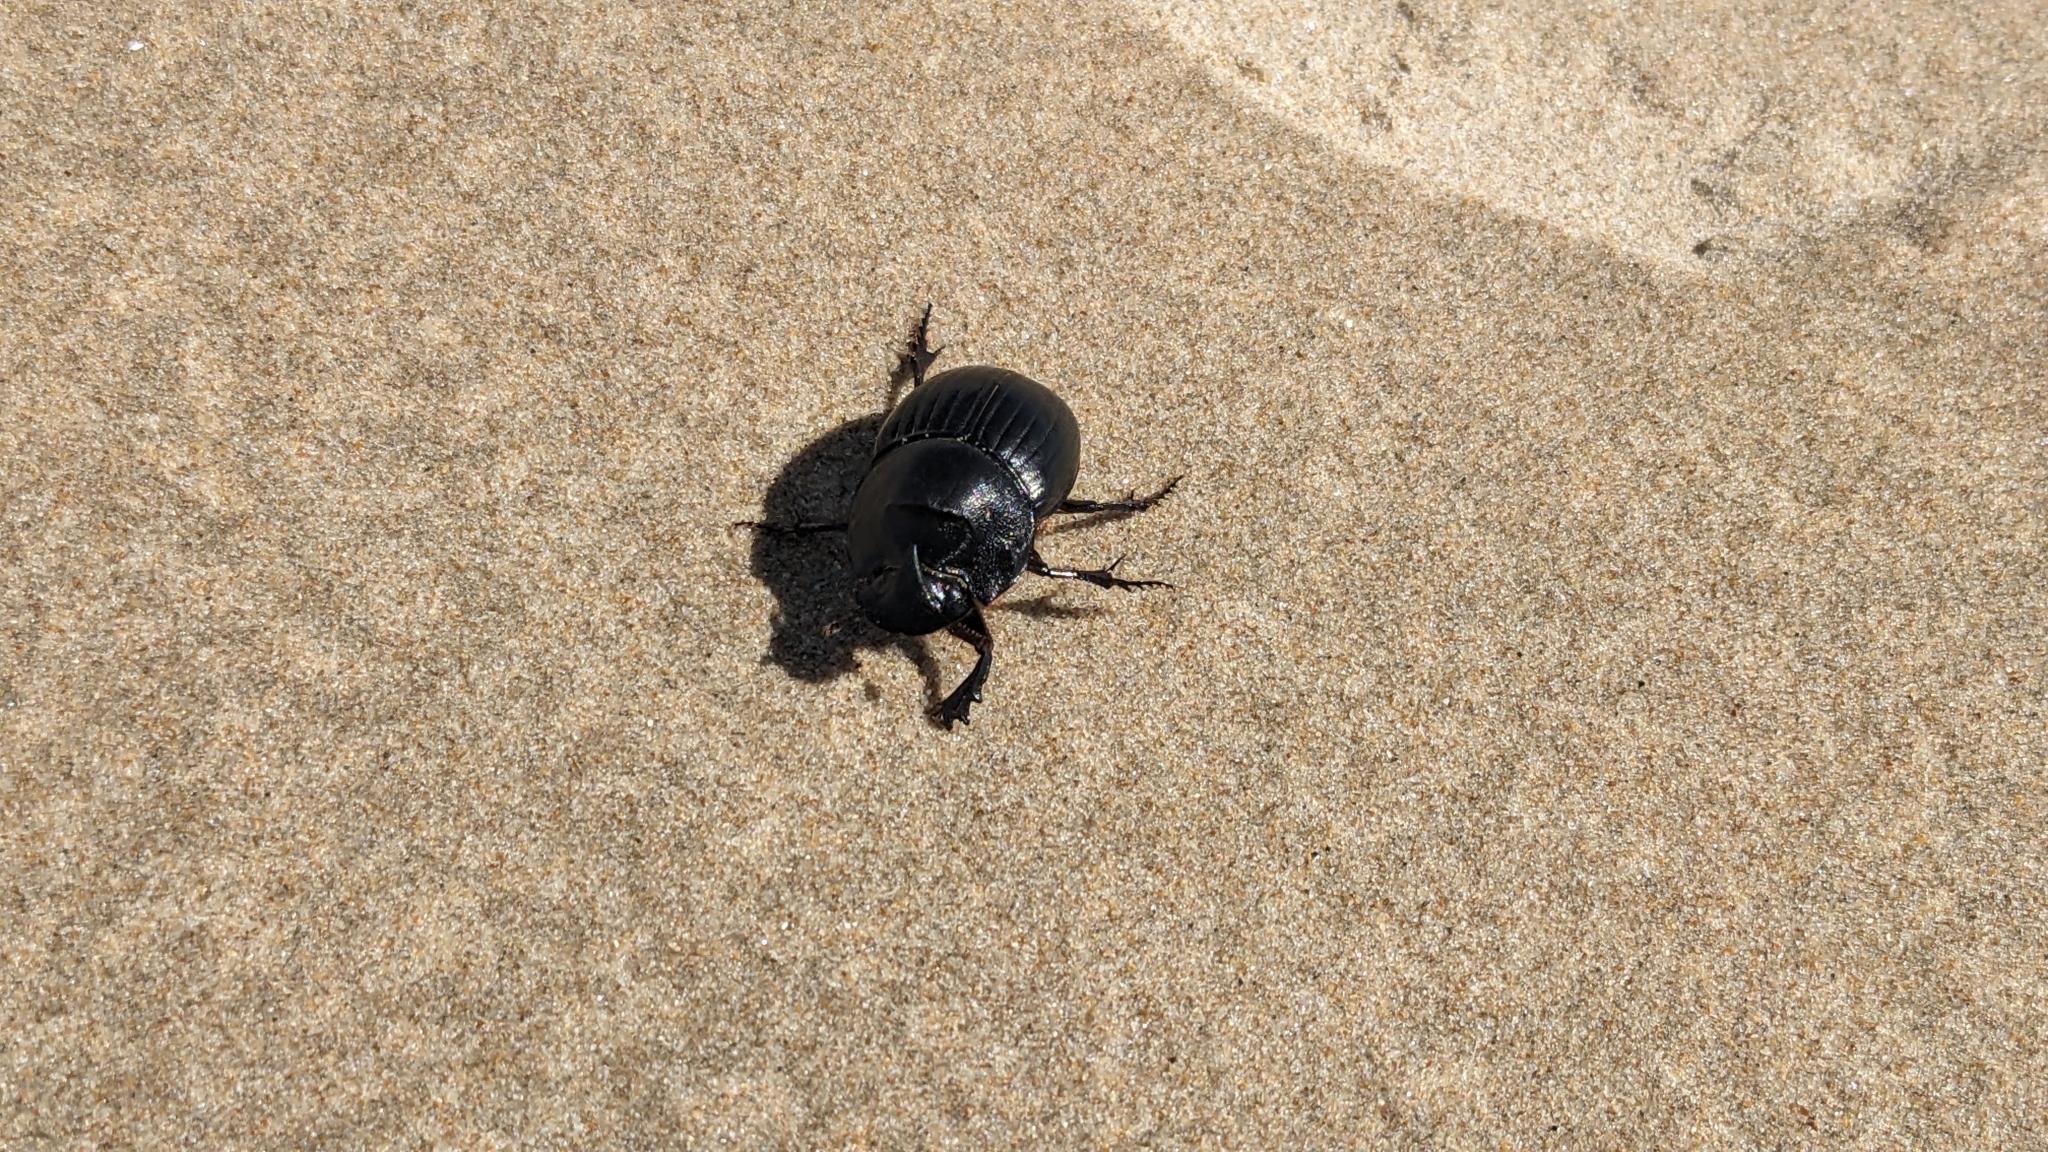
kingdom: Animalia
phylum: Arthropoda
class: Insecta
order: Coleoptera
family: Scarabaeidae
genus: Copris
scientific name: Copris hispanus
